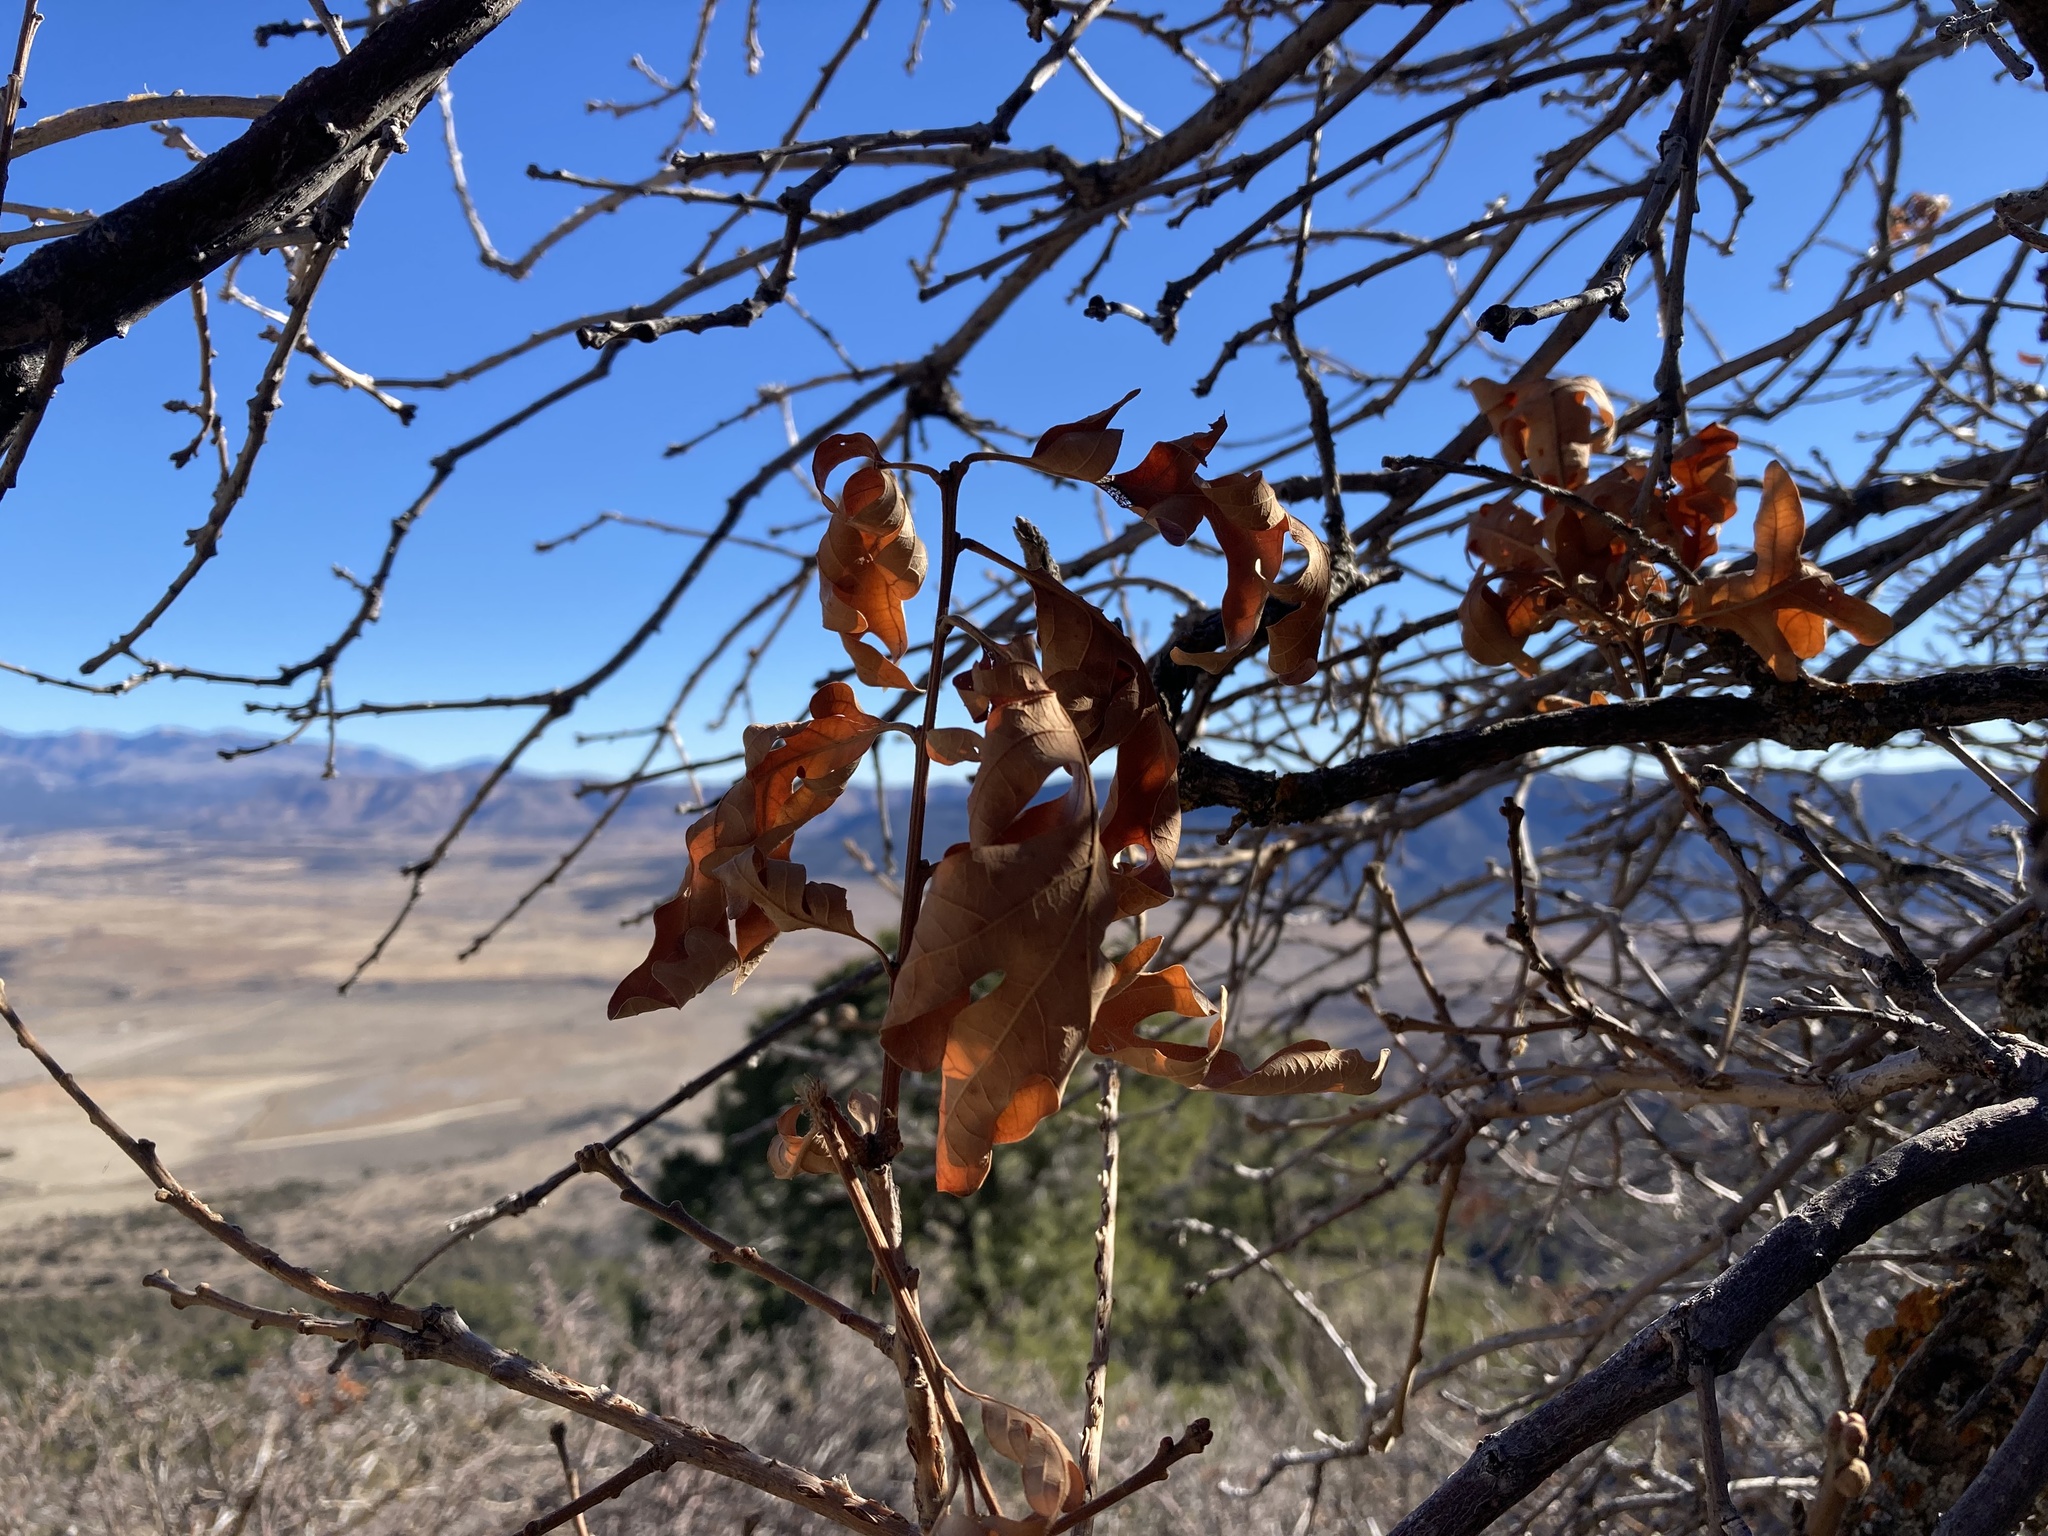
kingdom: Plantae
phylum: Tracheophyta
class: Magnoliopsida
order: Fagales
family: Fagaceae
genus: Quercus
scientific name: Quercus gambelii
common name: Gambel oak
